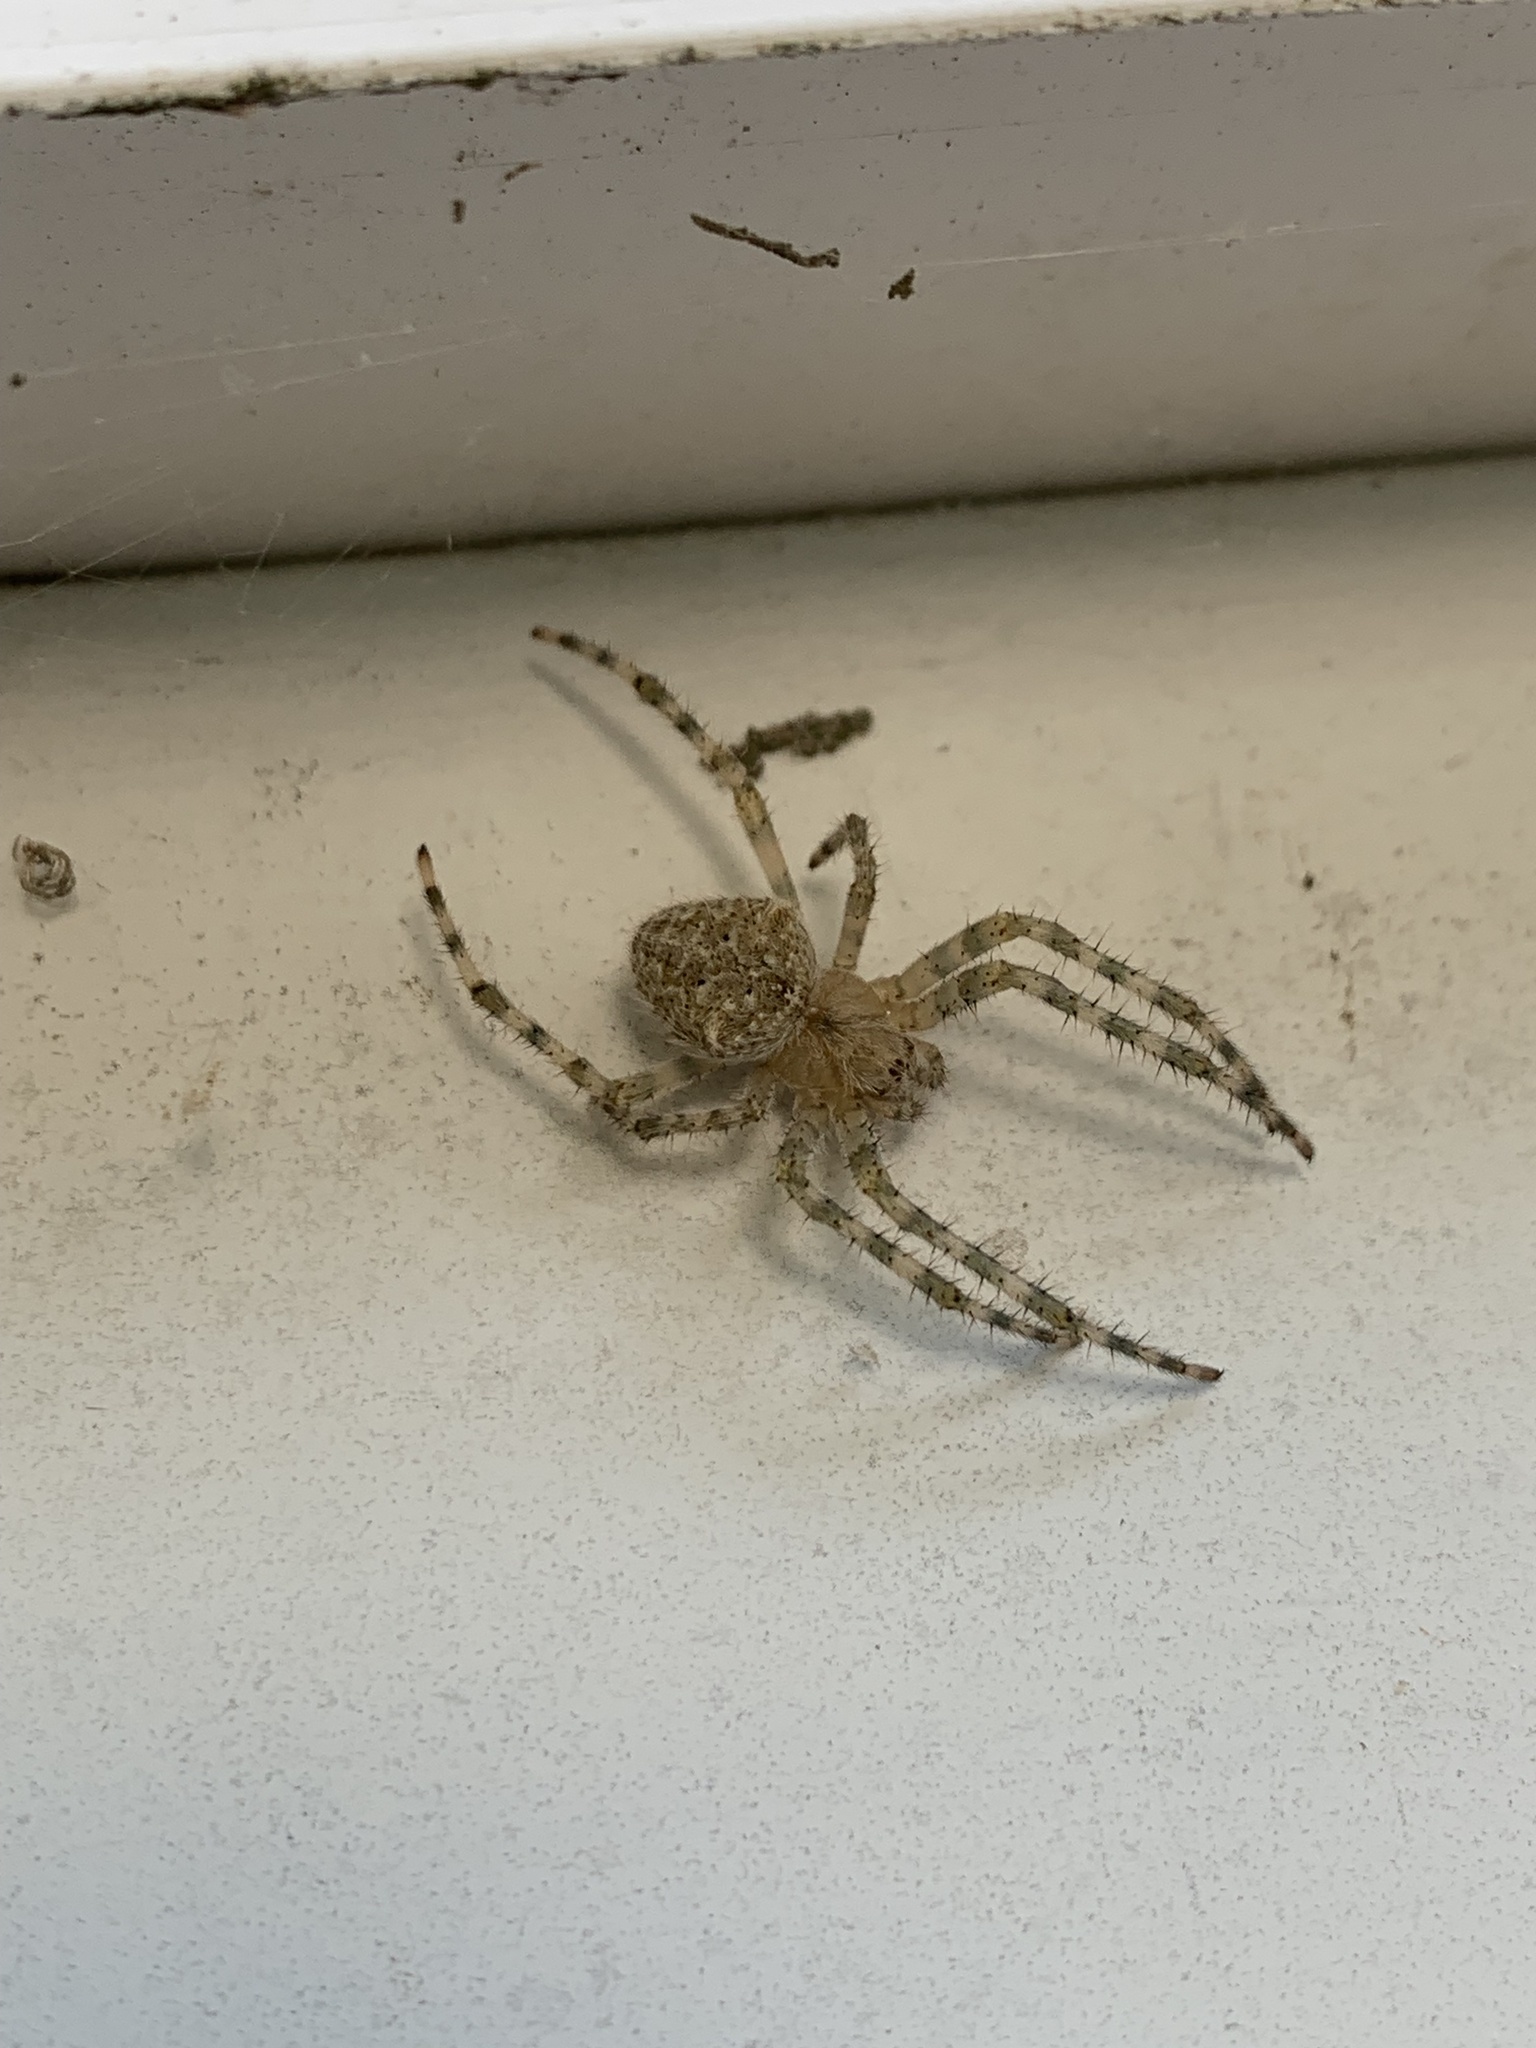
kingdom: Animalia
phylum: Arthropoda
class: Arachnida
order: Araneae
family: Araneidae
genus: Araneus
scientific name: Araneus cavaticus
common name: Barn orbweaver
